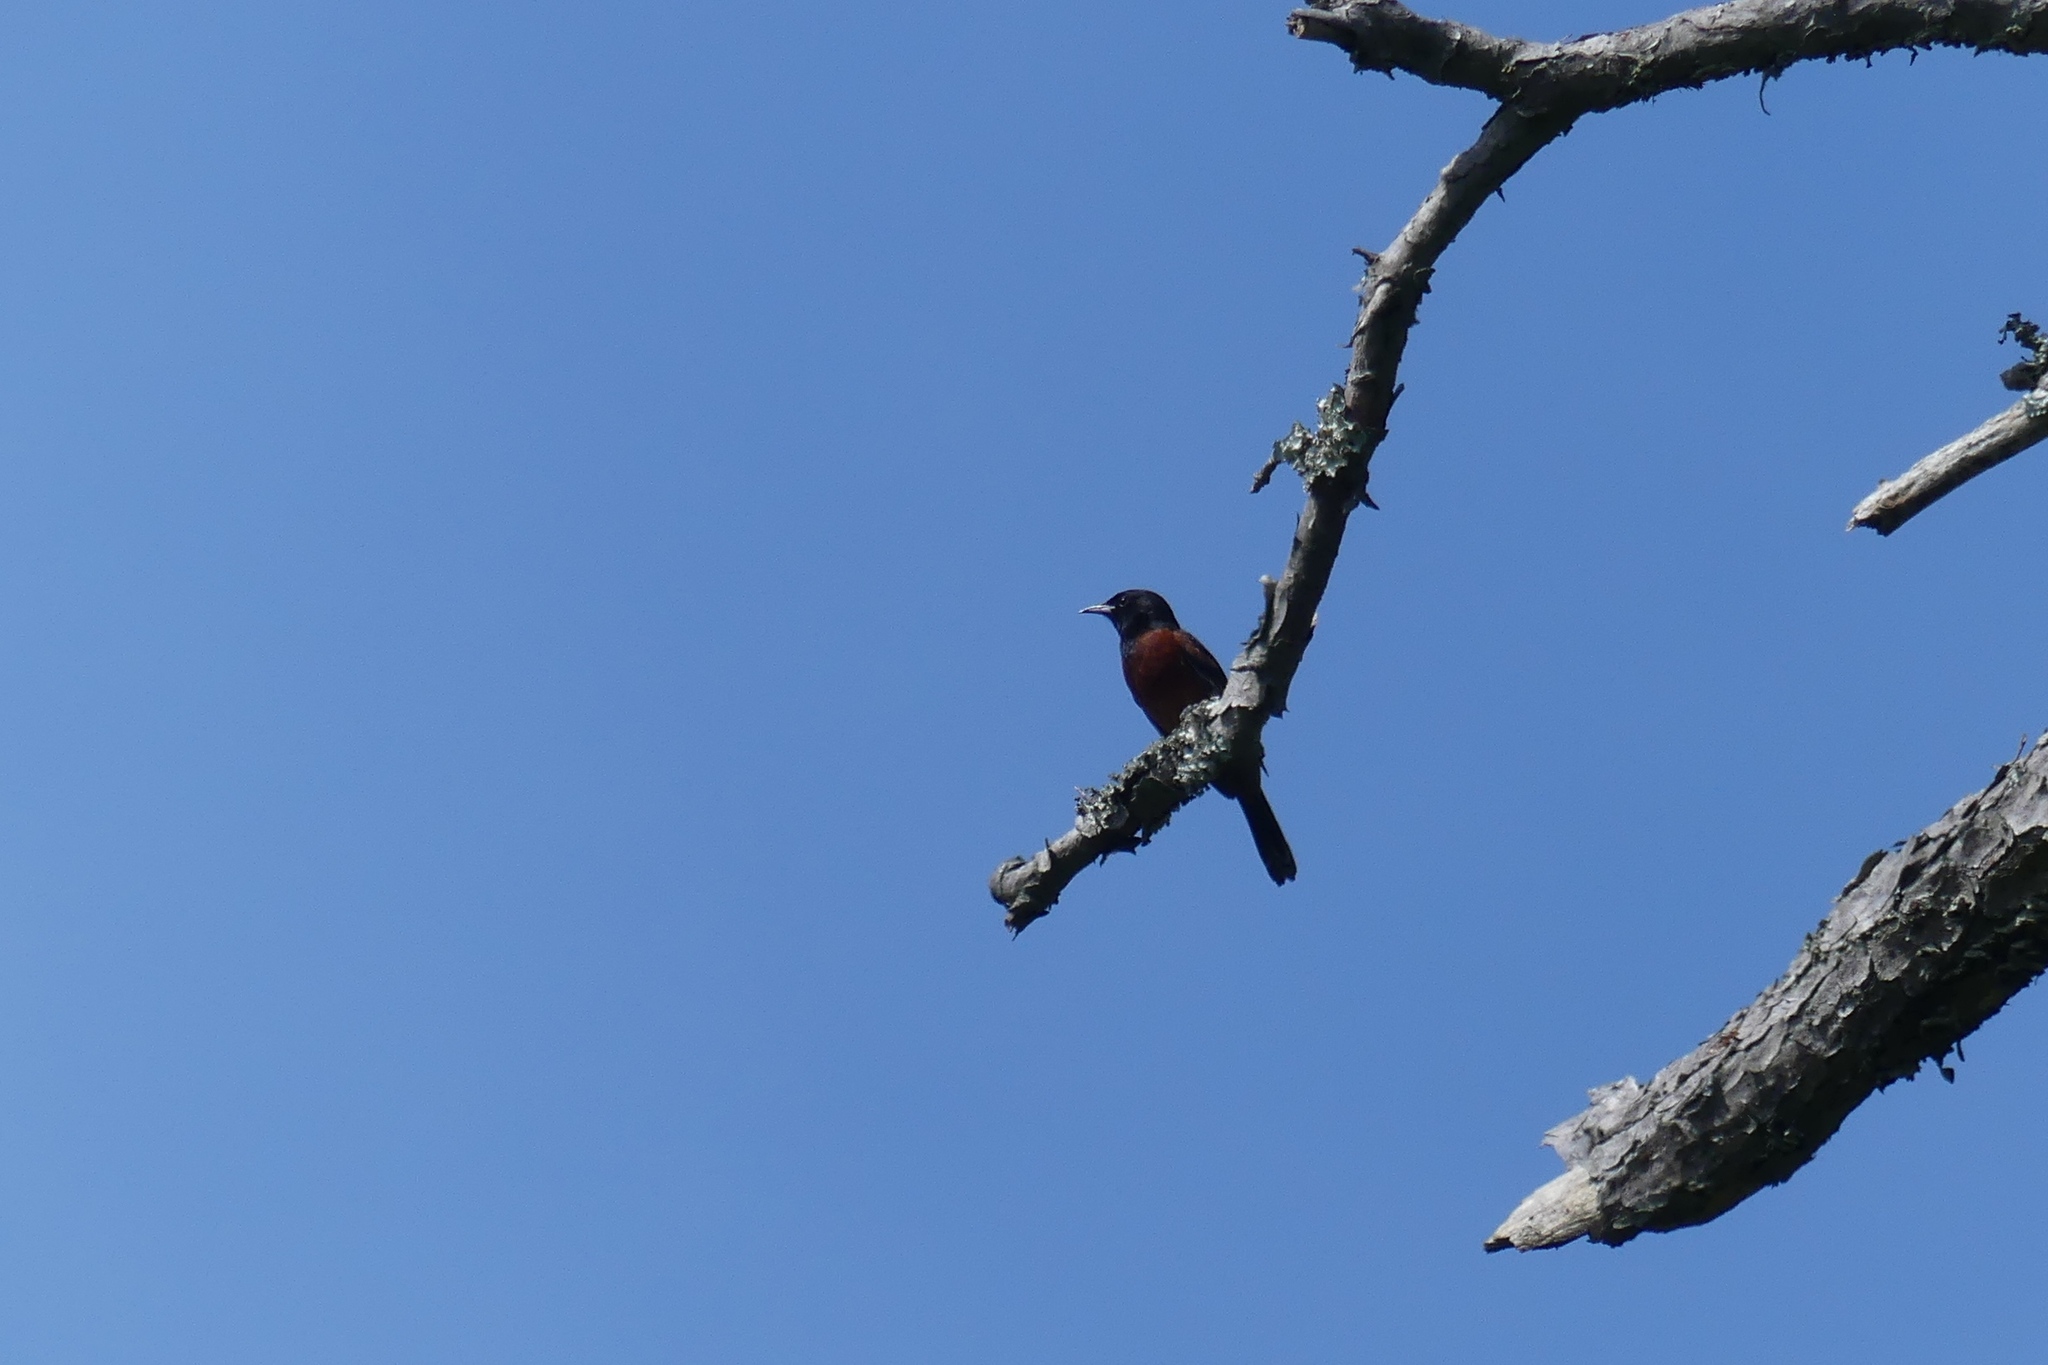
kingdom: Animalia
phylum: Chordata
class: Aves
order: Passeriformes
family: Icteridae
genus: Icterus
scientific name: Icterus spurius
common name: Orchard oriole
